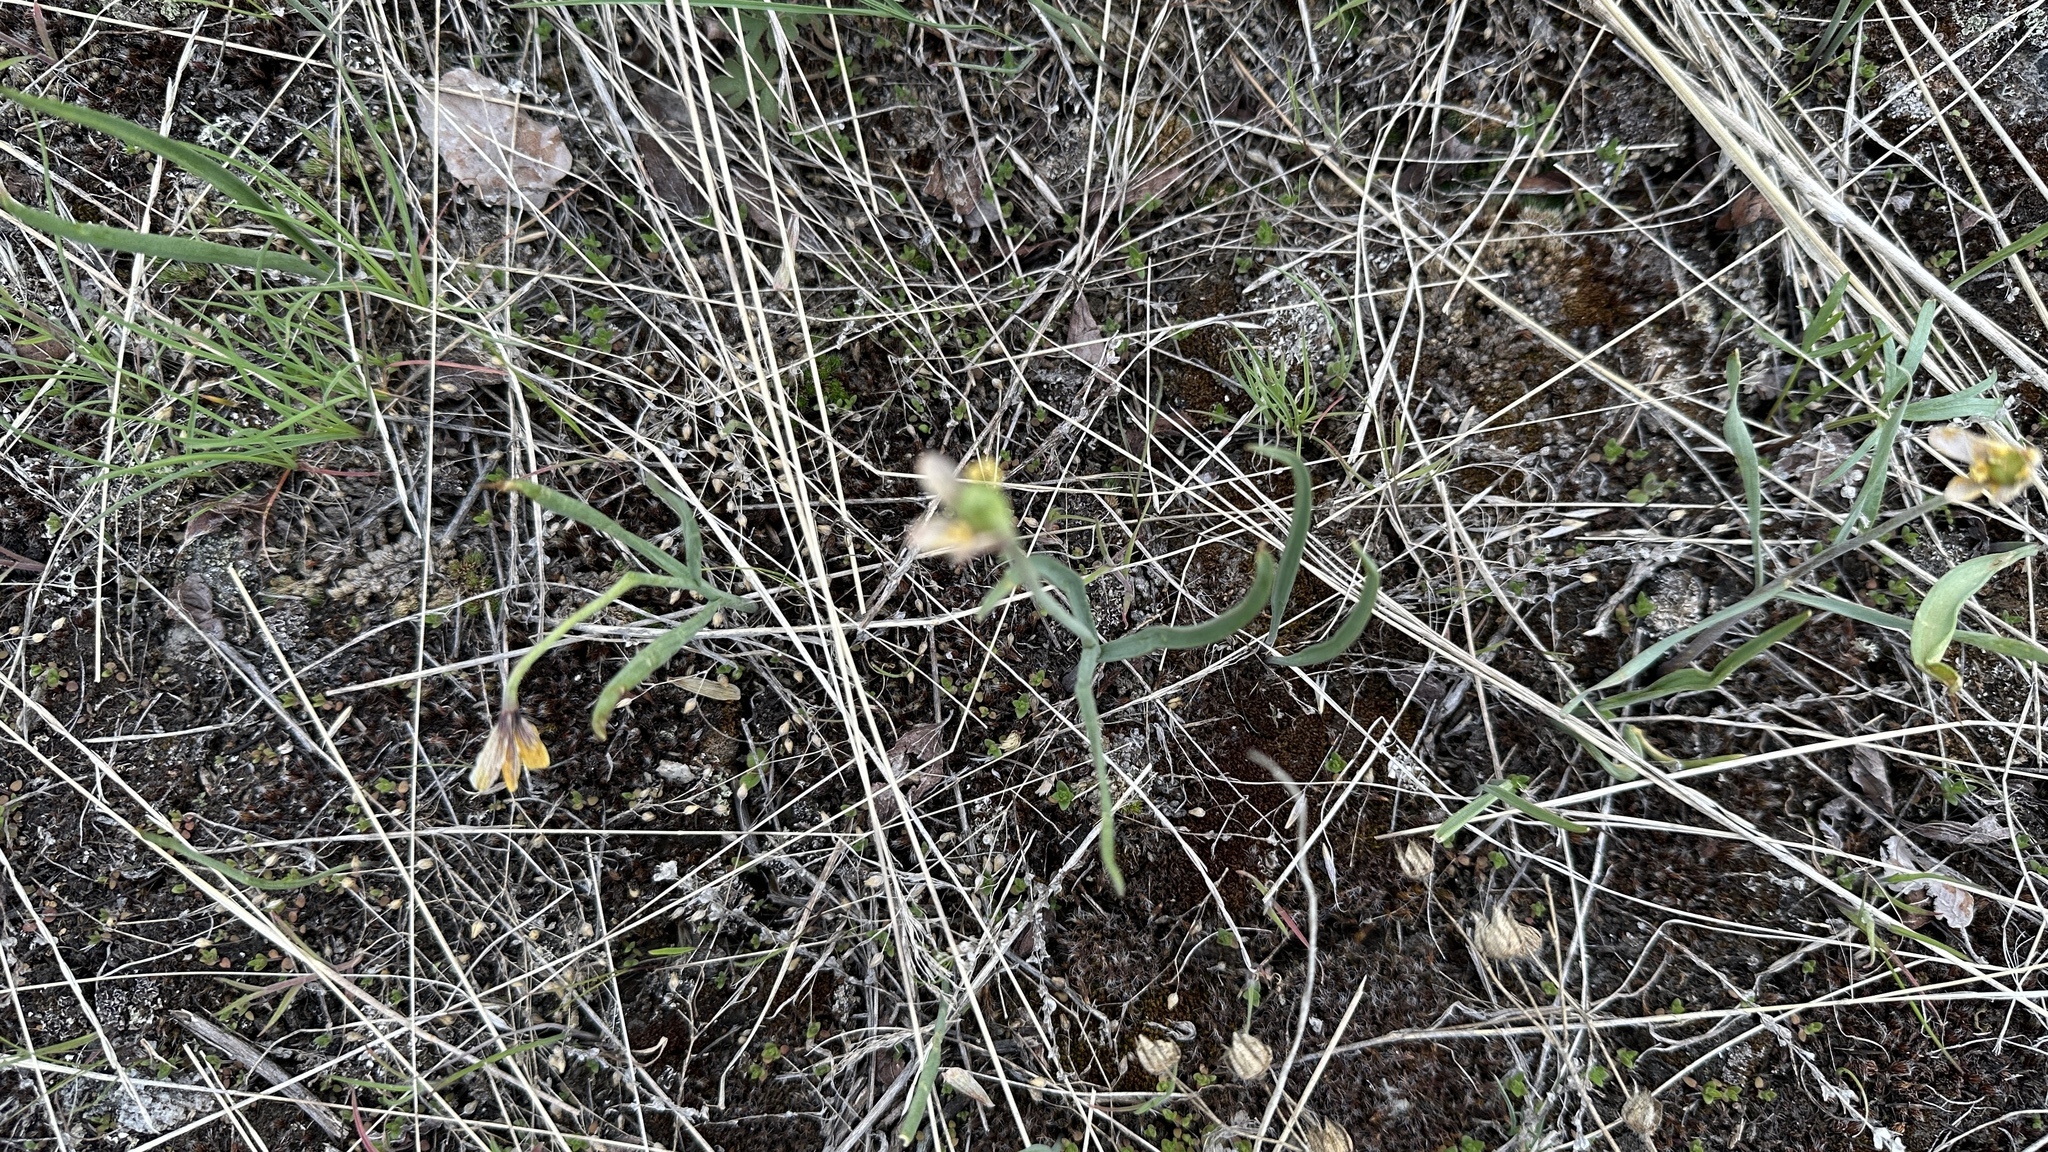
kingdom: Plantae
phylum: Tracheophyta
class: Liliopsida
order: Liliales
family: Liliaceae
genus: Fritillaria
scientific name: Fritillaria pudica
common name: Yellow fritillary
